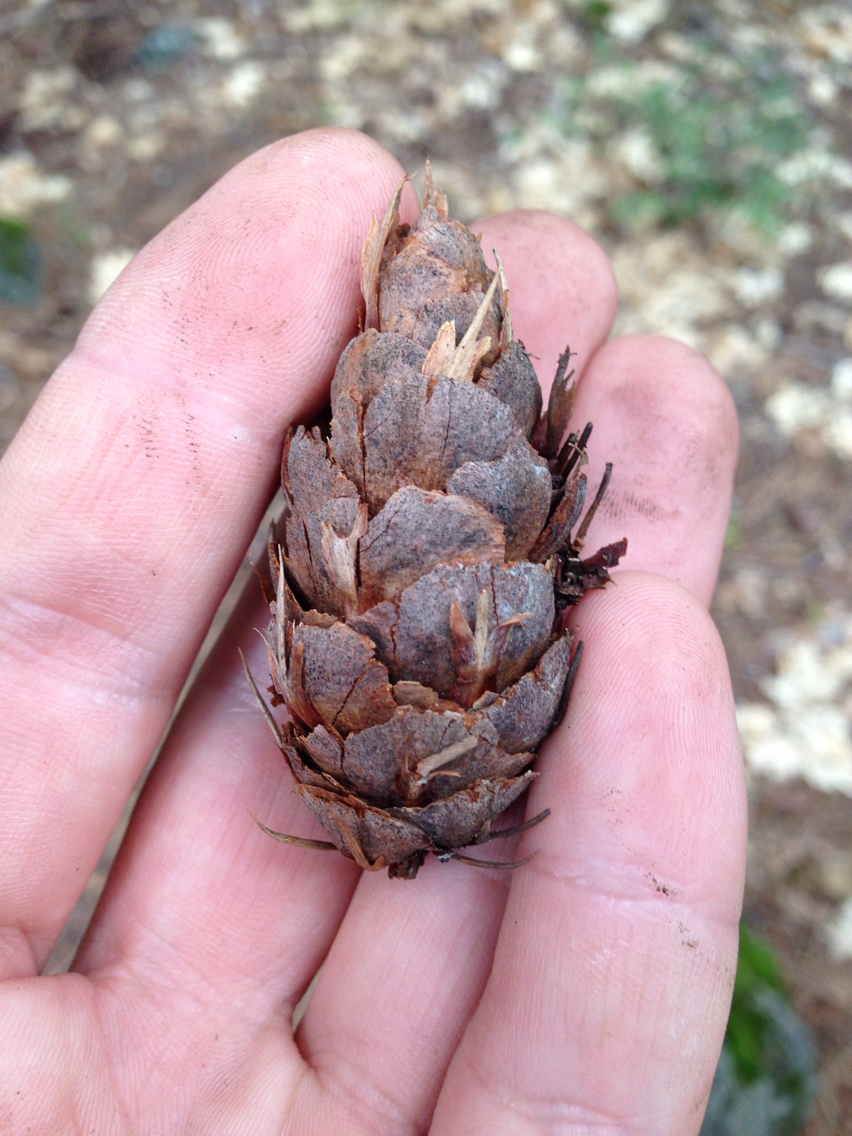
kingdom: Plantae
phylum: Tracheophyta
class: Pinopsida
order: Pinales
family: Pinaceae
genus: Pseudotsuga
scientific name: Pseudotsuga menziesii
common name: Douglas fir
